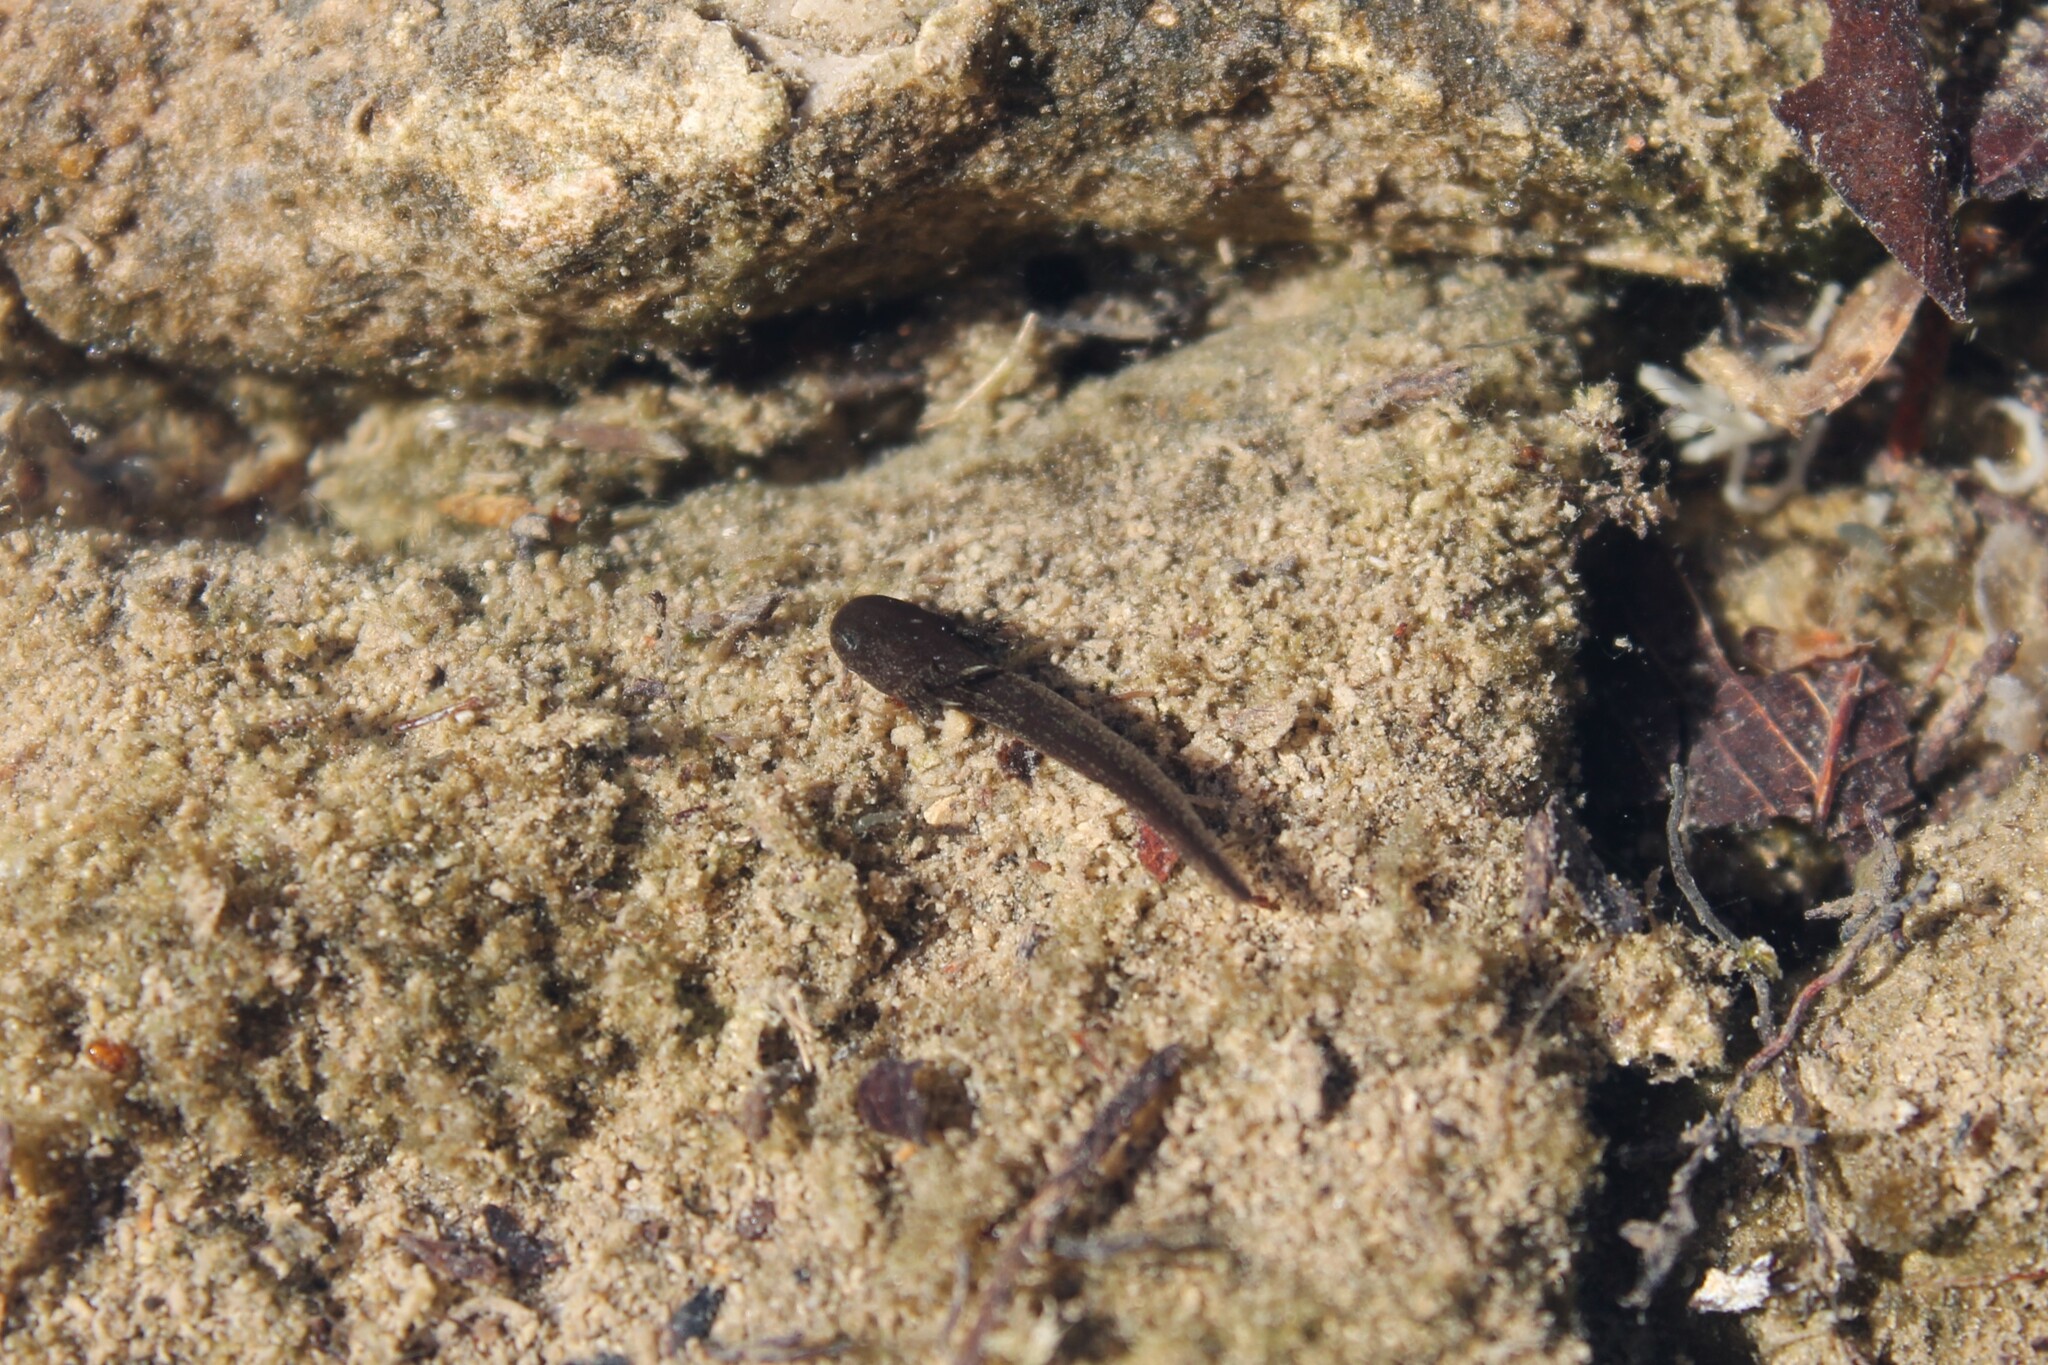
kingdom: Animalia
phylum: Chordata
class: Amphibia
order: Caudata
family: Ambystomatidae
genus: Ambystoma
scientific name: Ambystoma barbouri
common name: Streamside salamander
